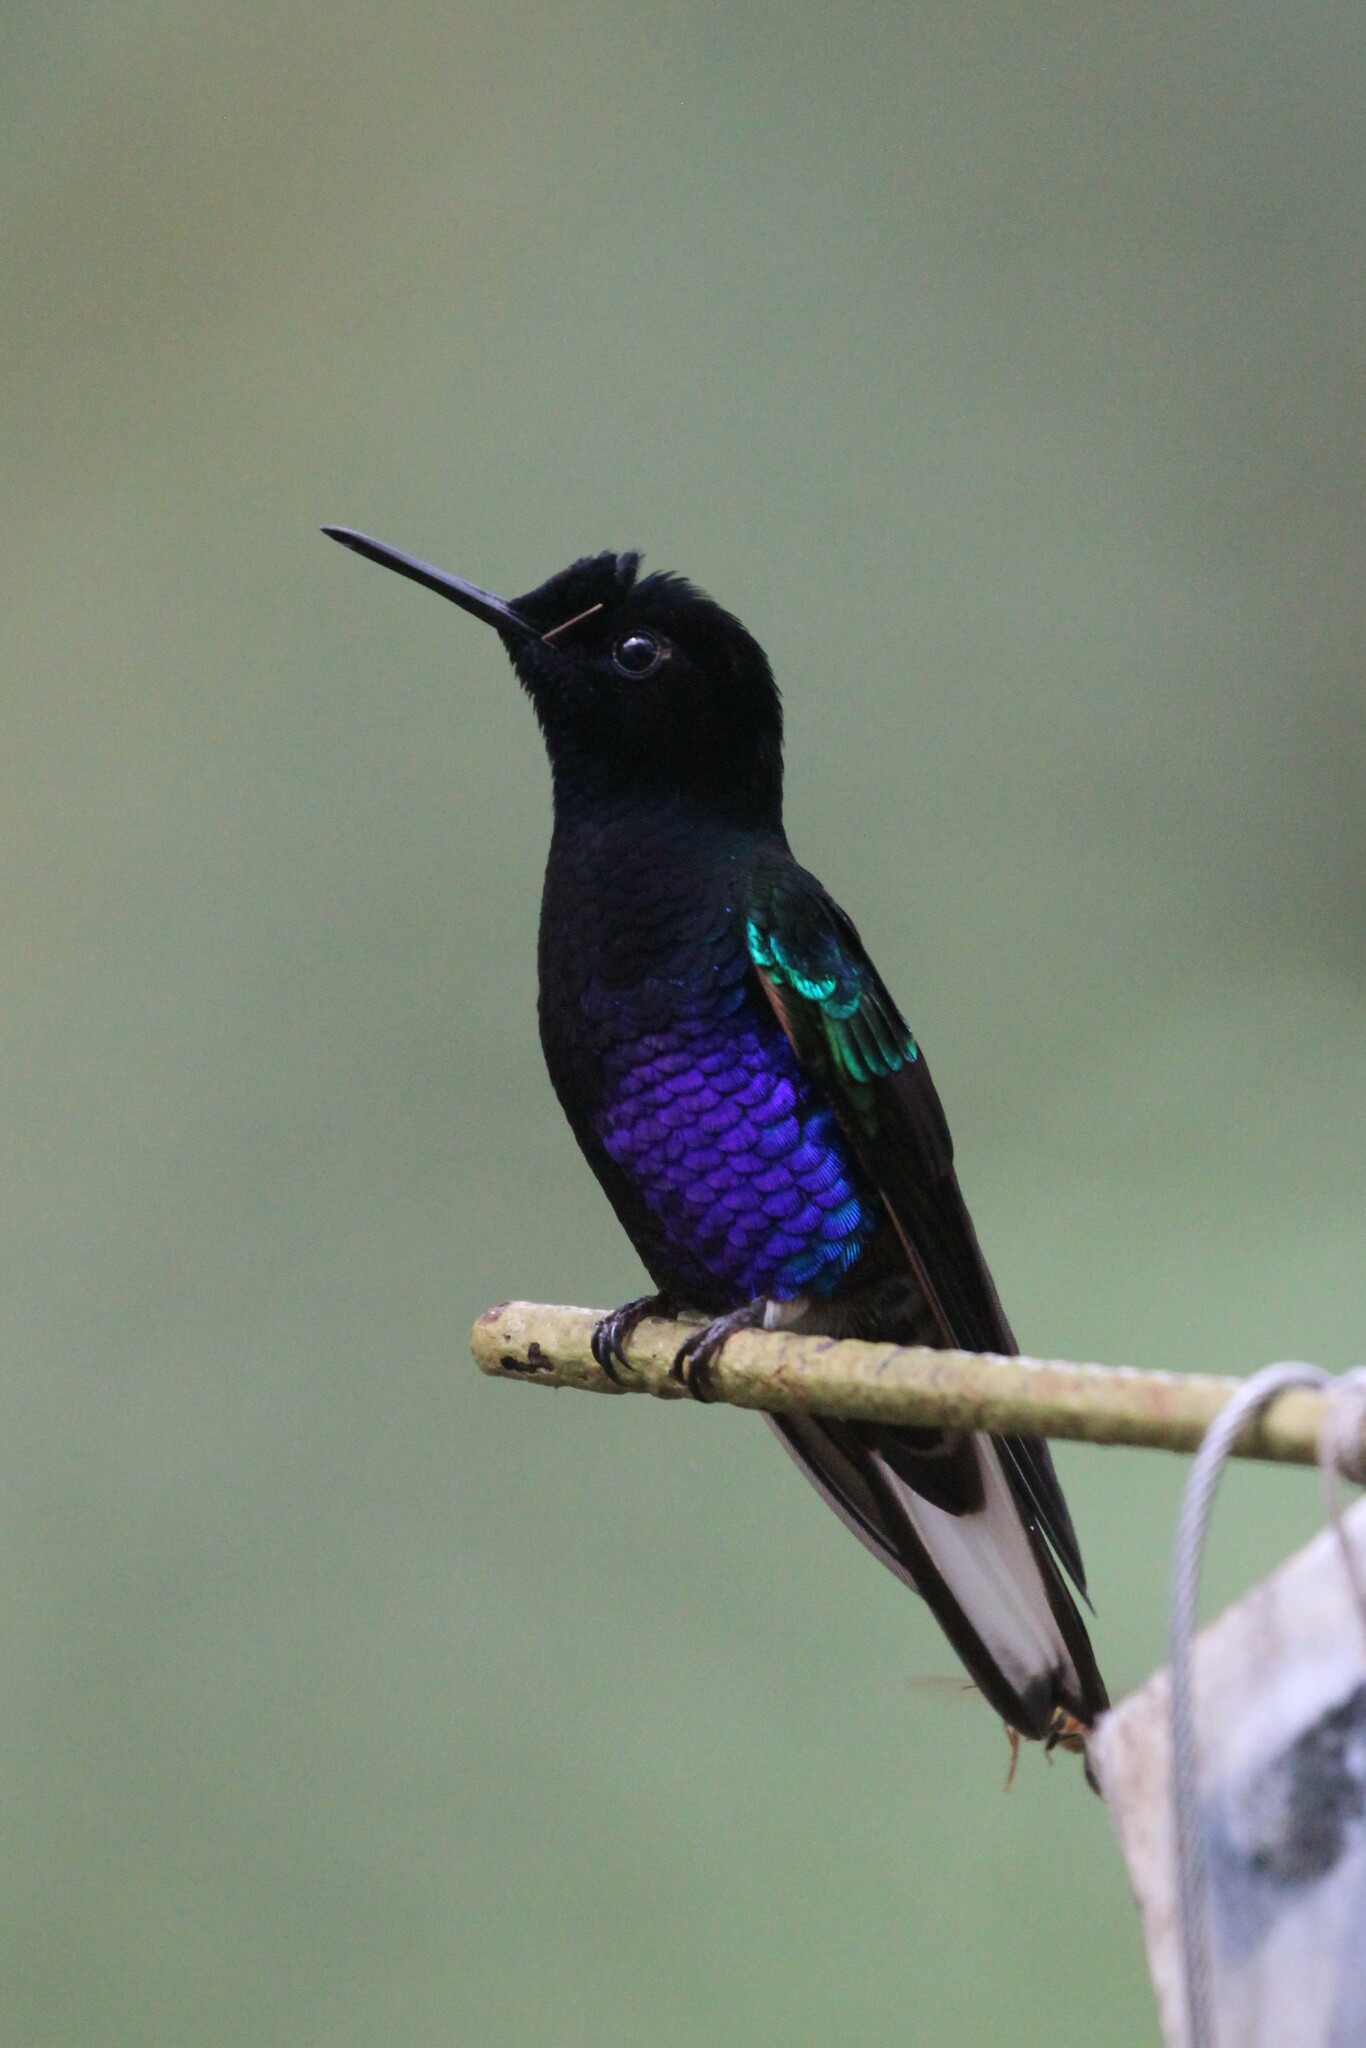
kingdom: Animalia
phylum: Chordata
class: Aves
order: Apodiformes
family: Trochilidae
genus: Boissonneaua
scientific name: Boissonneaua jardini
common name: Velvet-purple coronet
